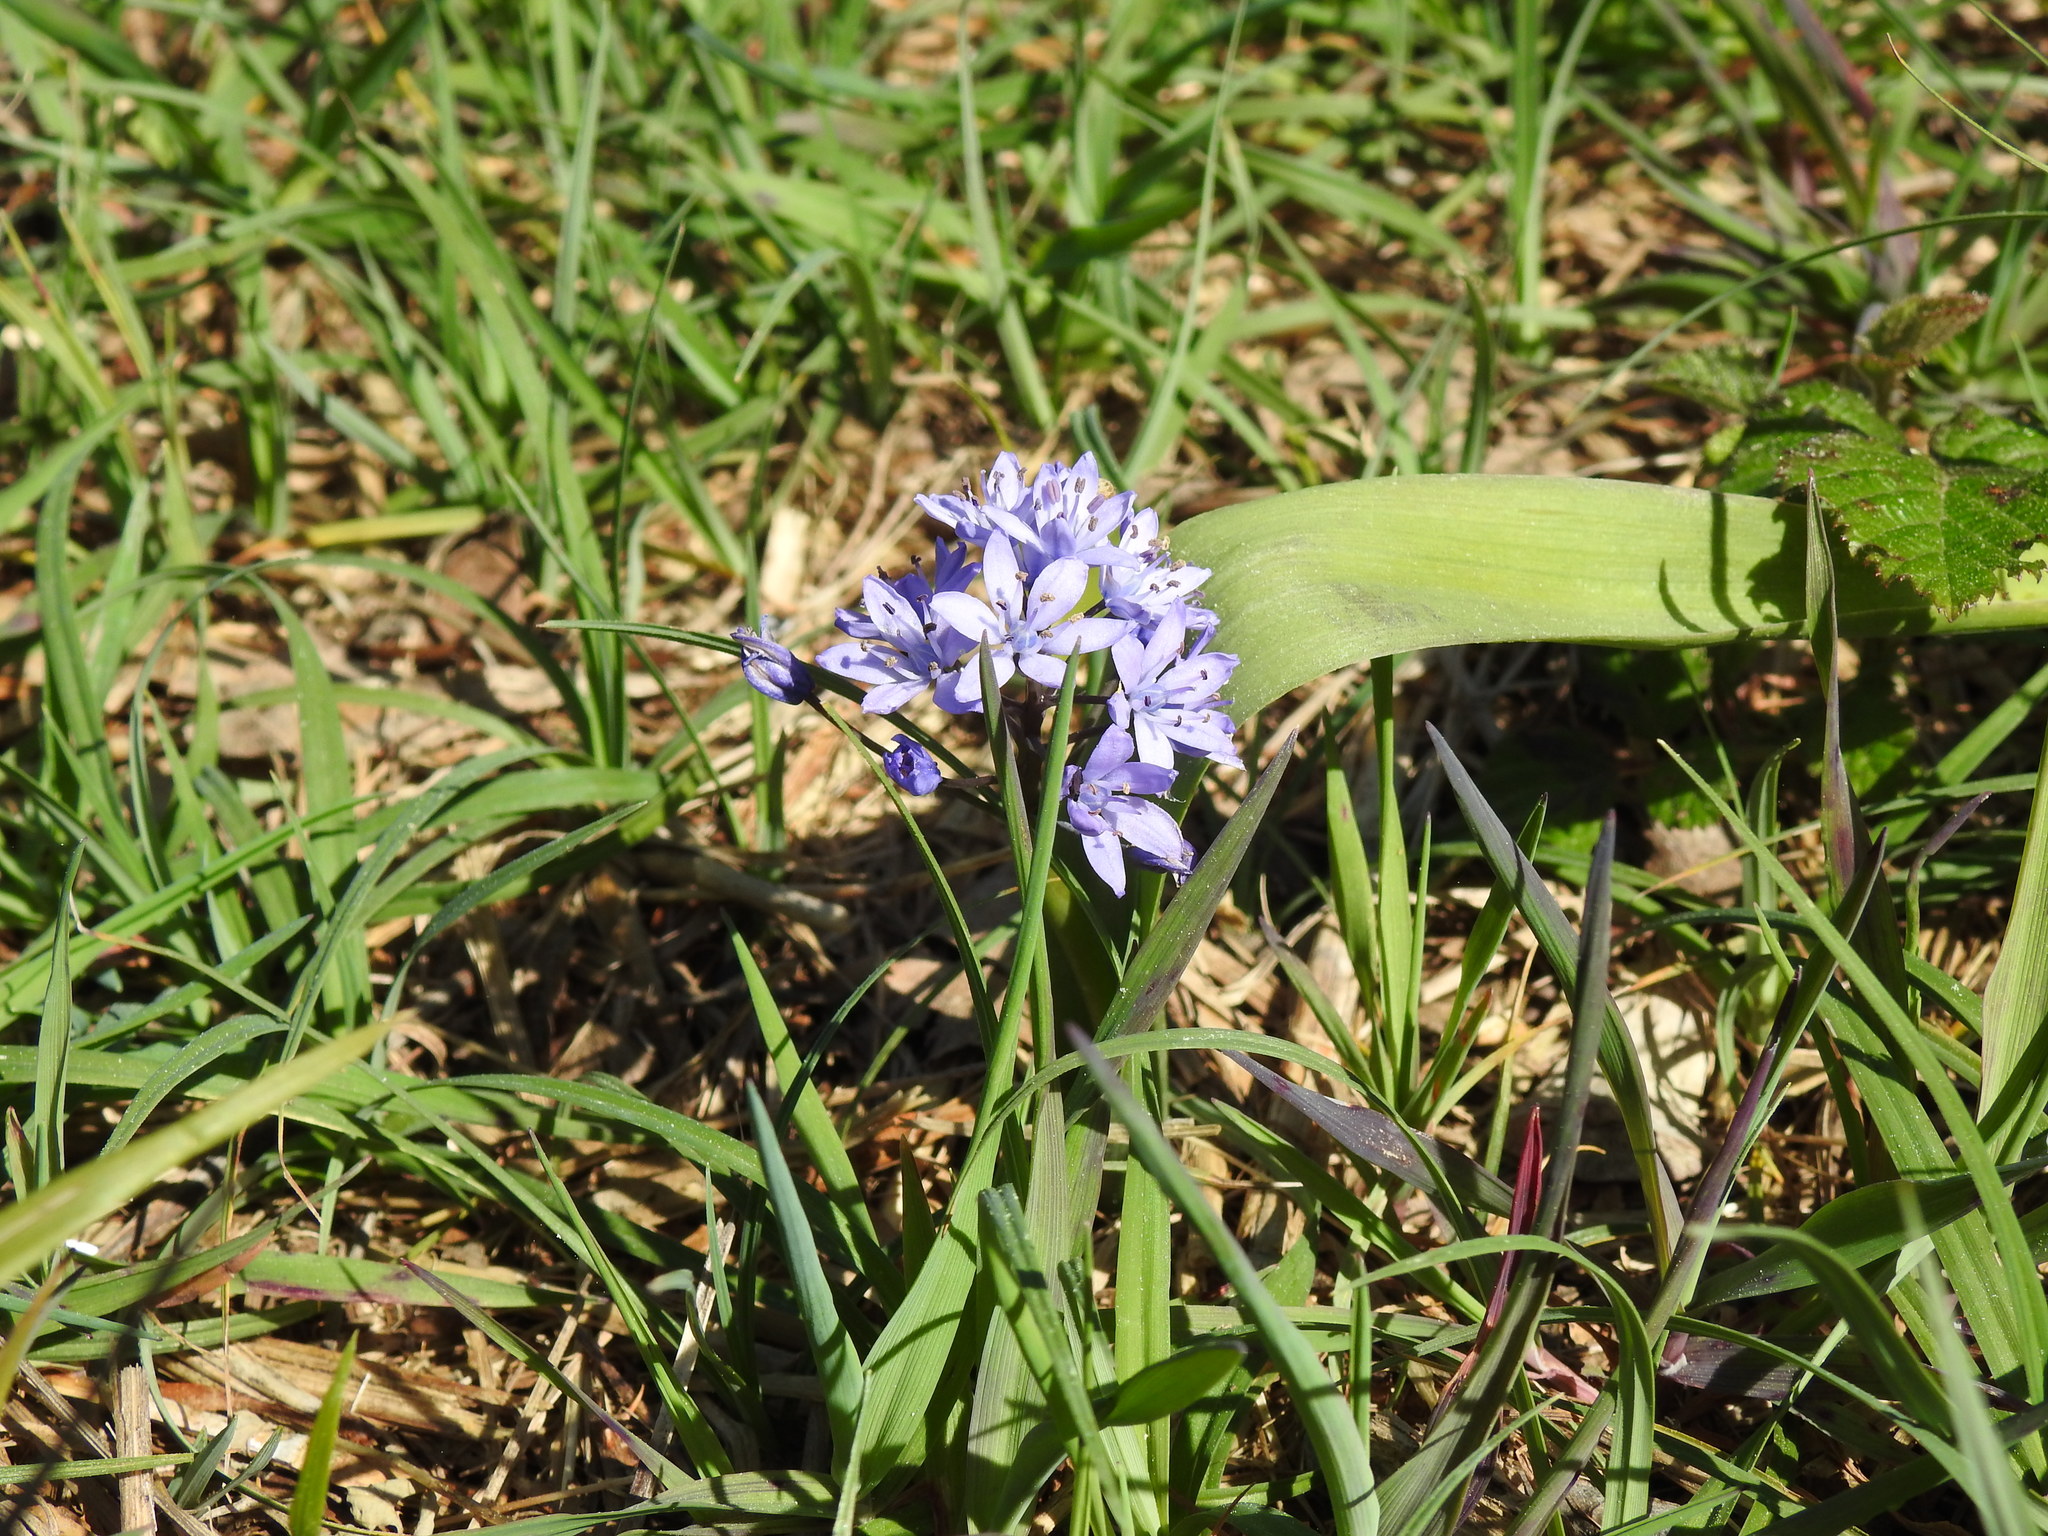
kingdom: Plantae
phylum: Tracheophyta
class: Liliopsida
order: Asparagales
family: Asparagaceae
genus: Scilla
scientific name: Scilla monophyllos
